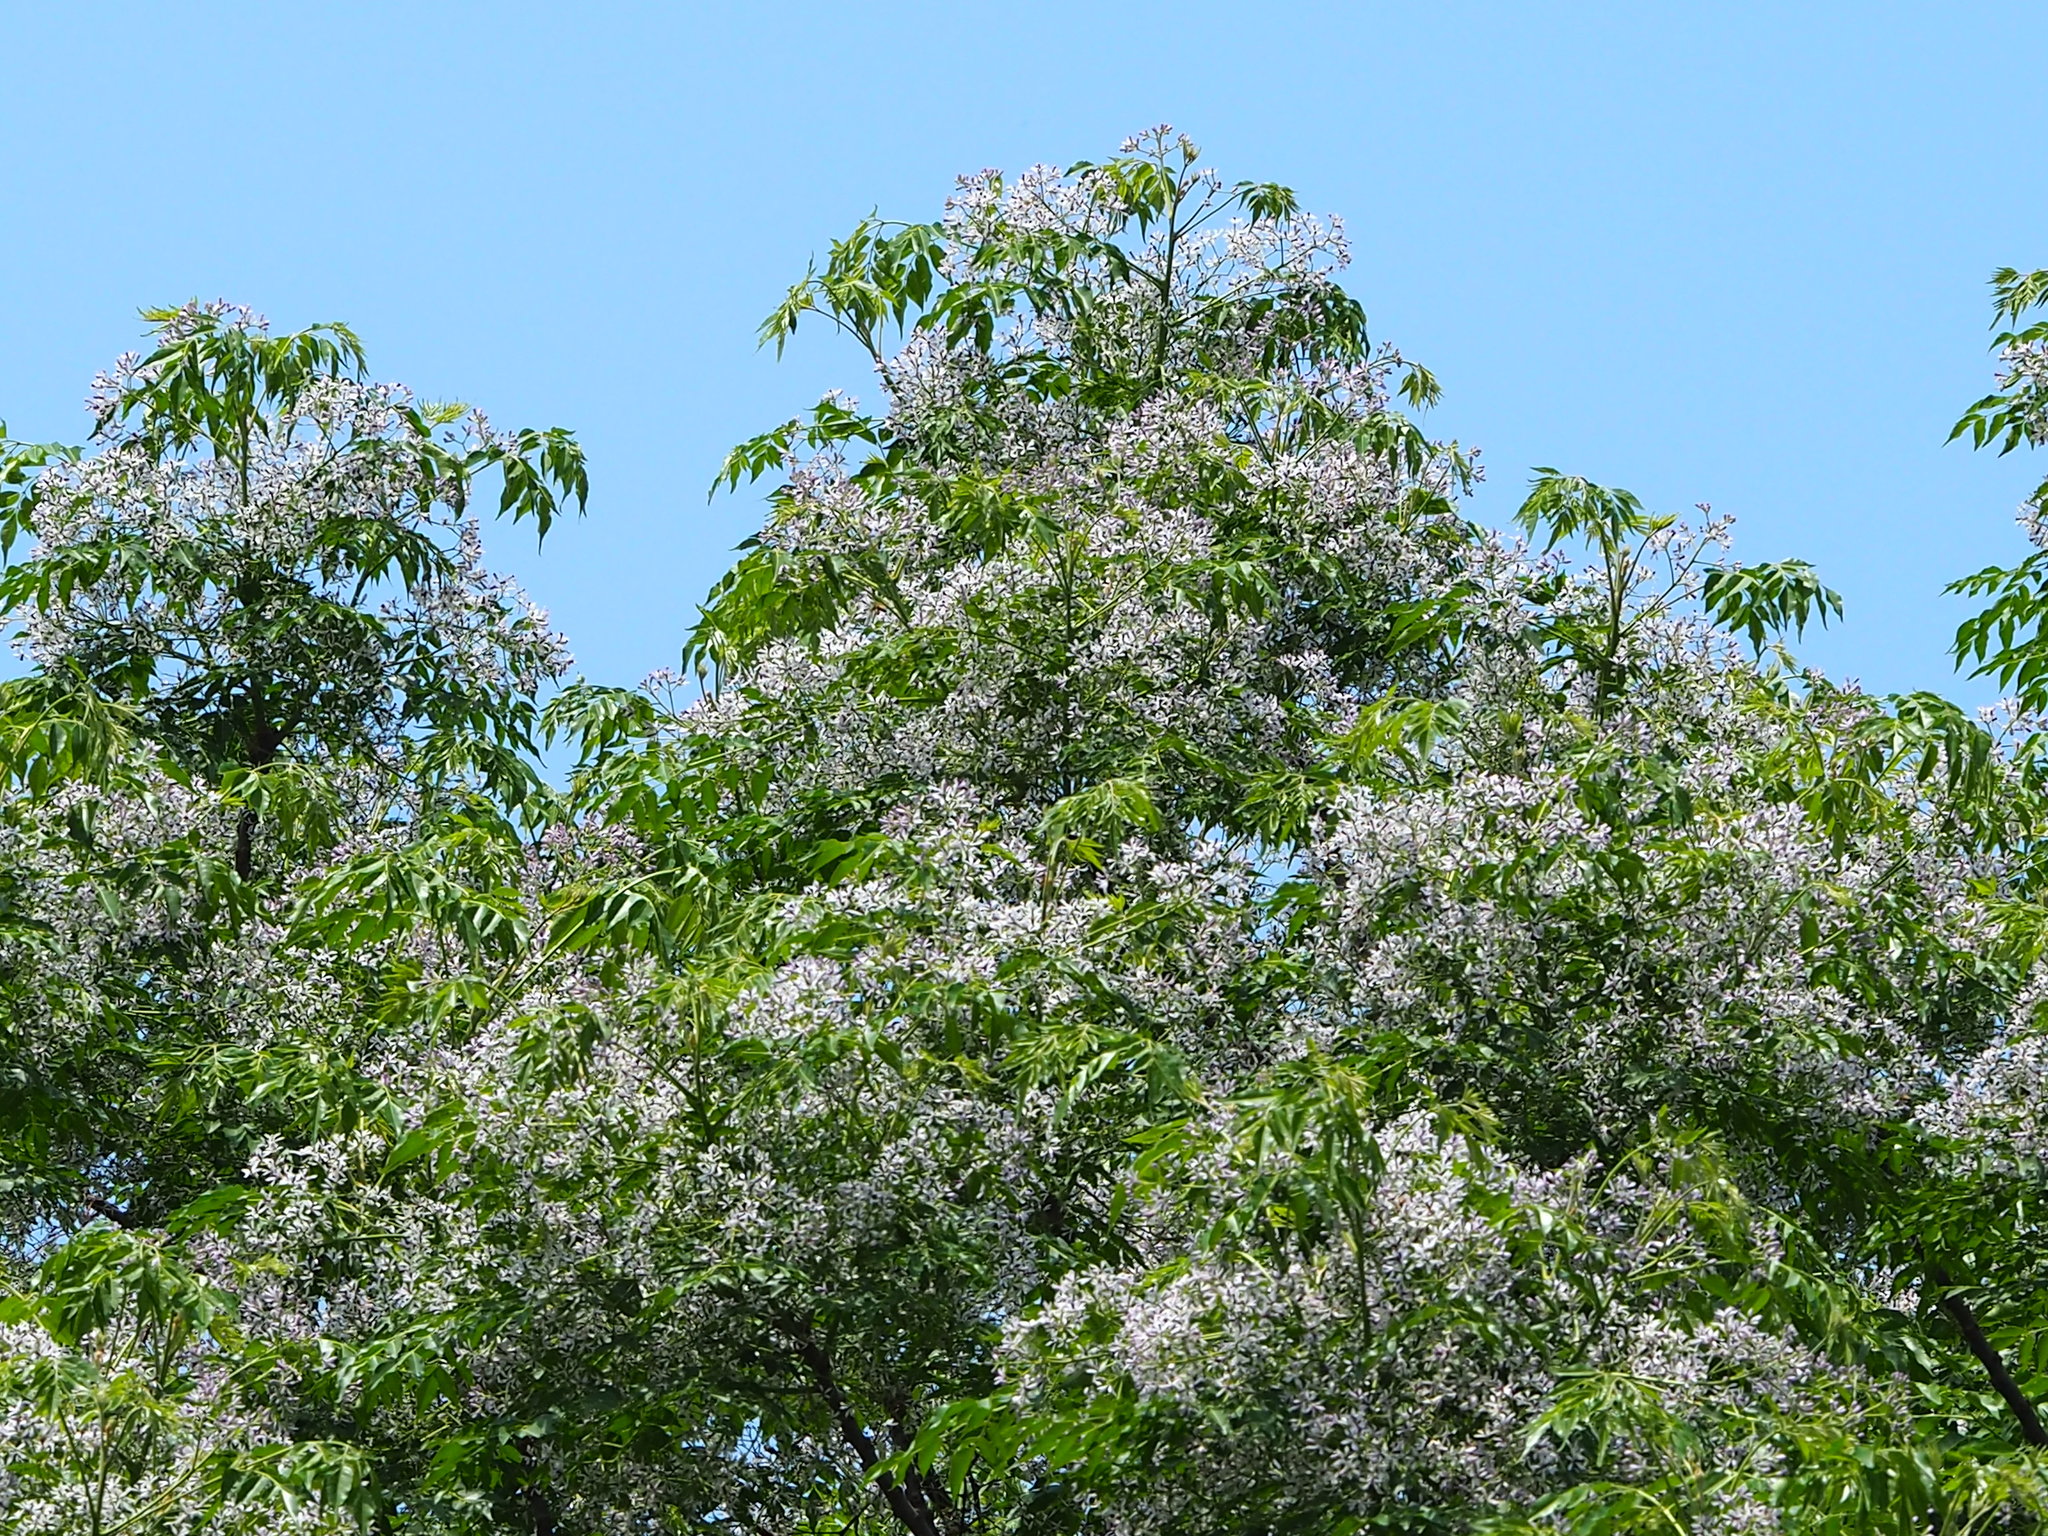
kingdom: Plantae
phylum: Tracheophyta
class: Magnoliopsida
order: Sapindales
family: Meliaceae
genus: Melia
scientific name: Melia azedarach
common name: Chinaberrytree
